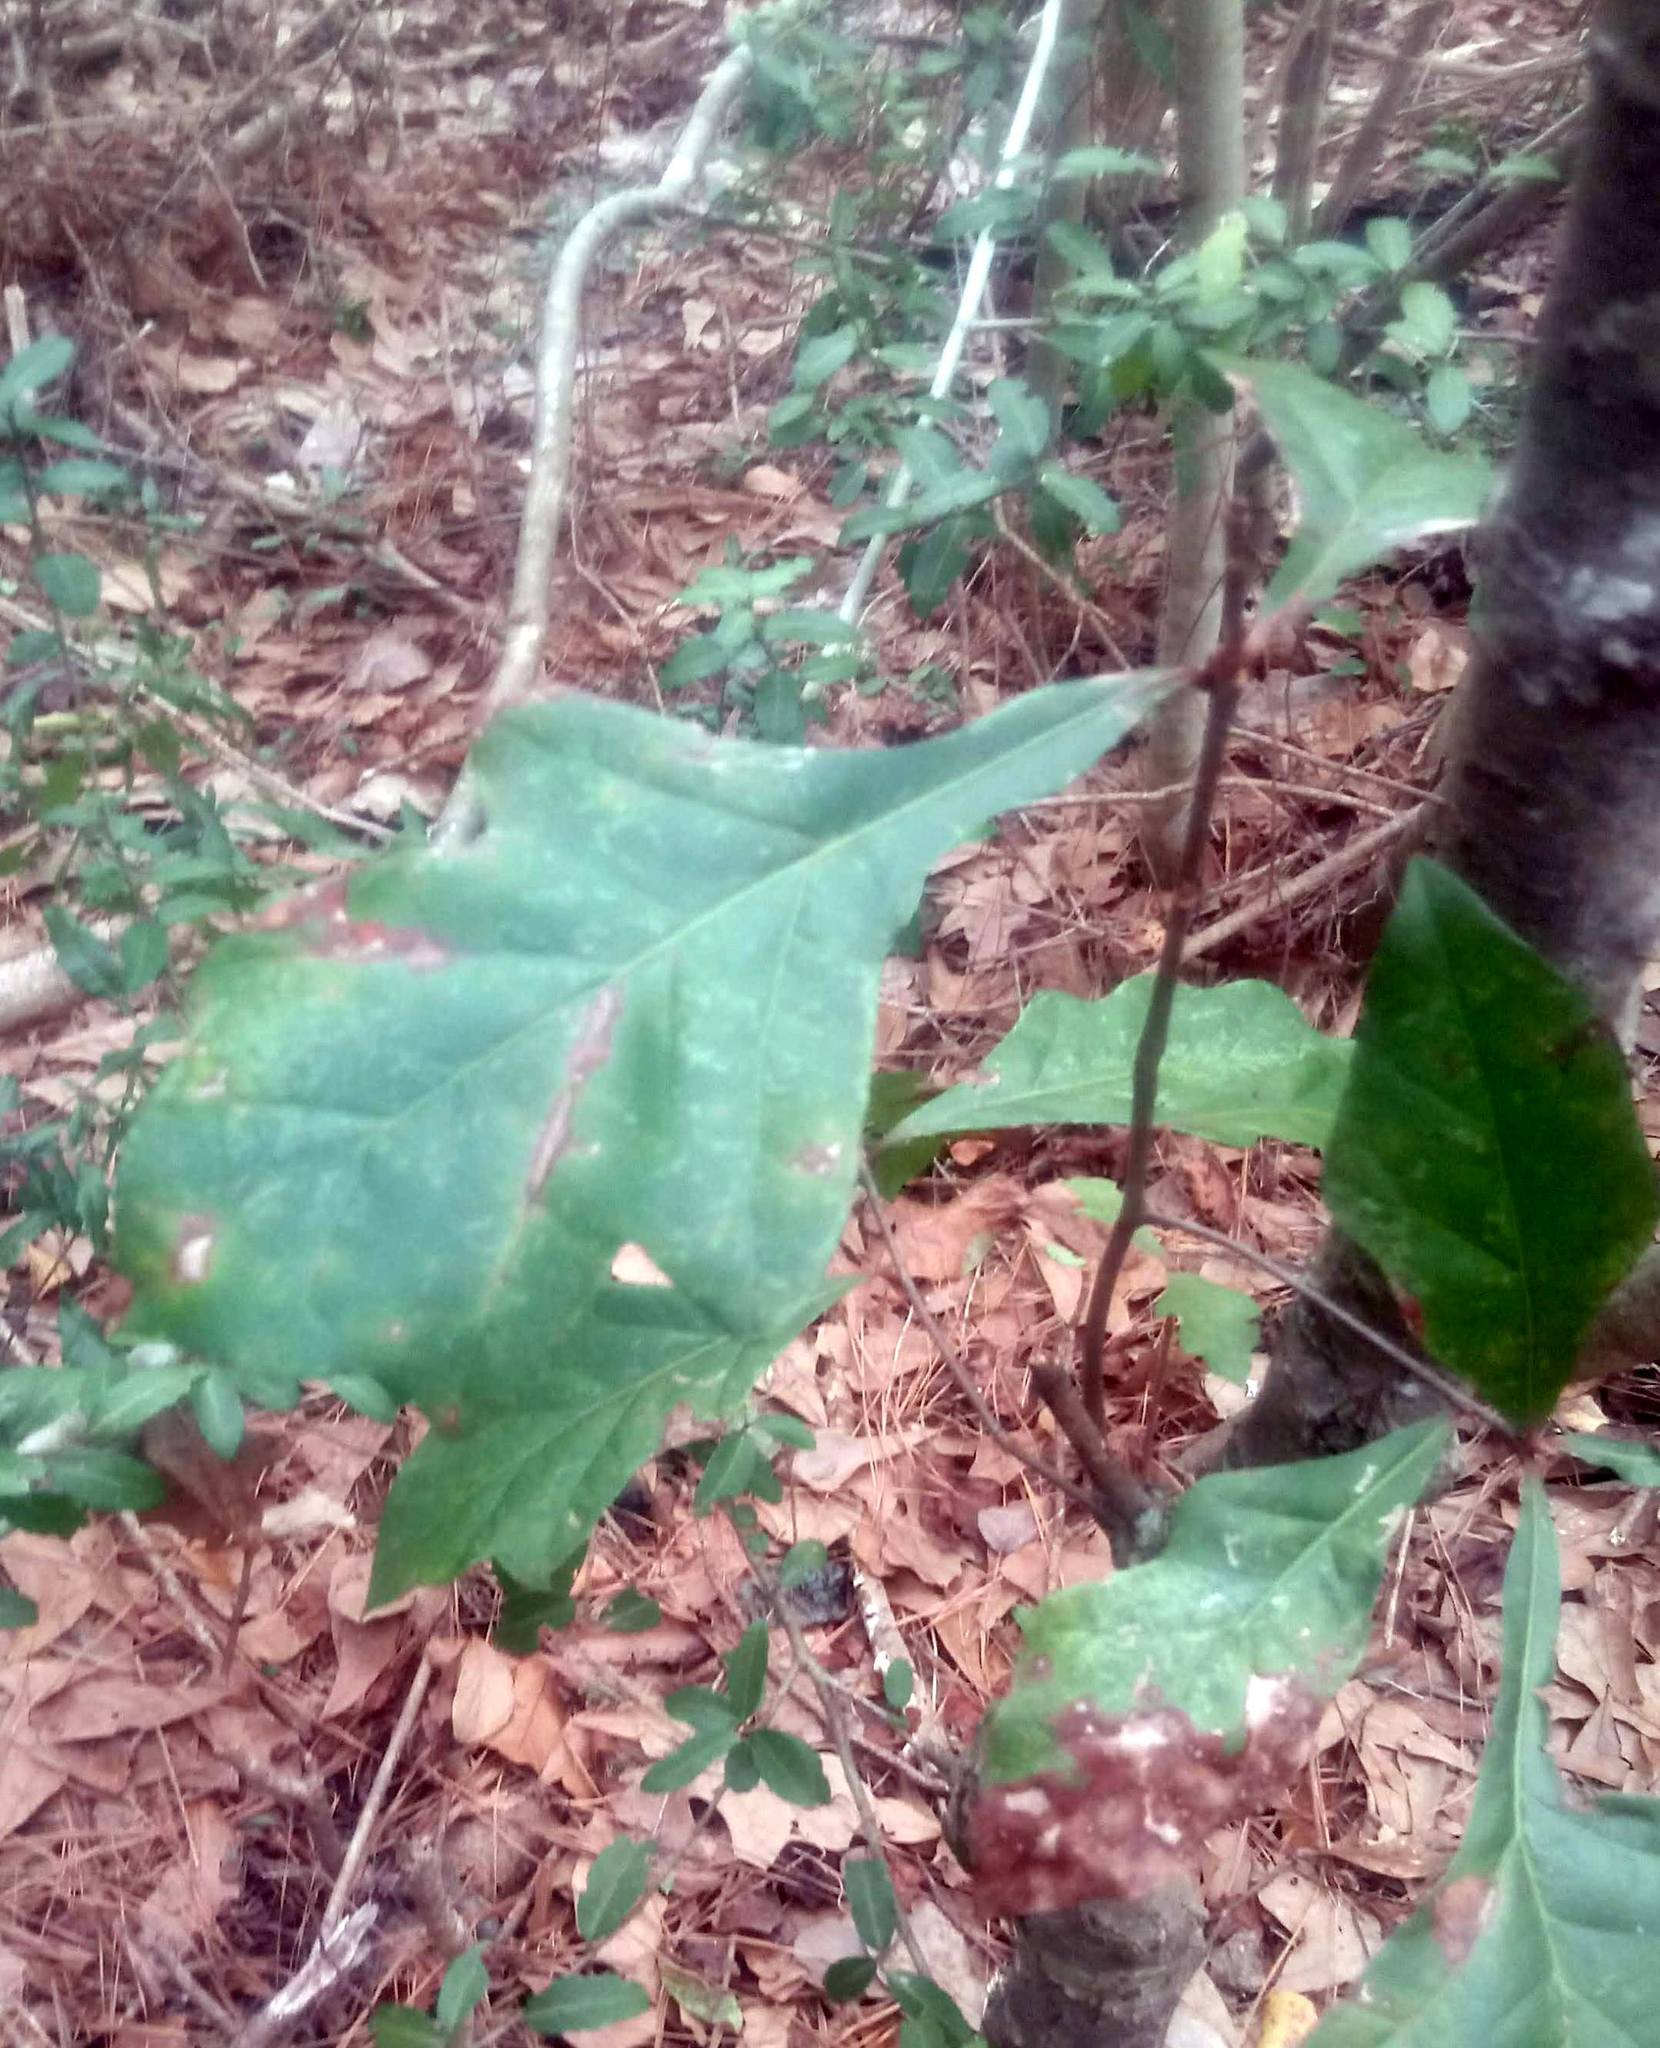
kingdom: Plantae
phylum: Tracheophyta
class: Magnoliopsida
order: Fagales
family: Fagaceae
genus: Quercus
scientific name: Quercus nigra
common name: Water oak
